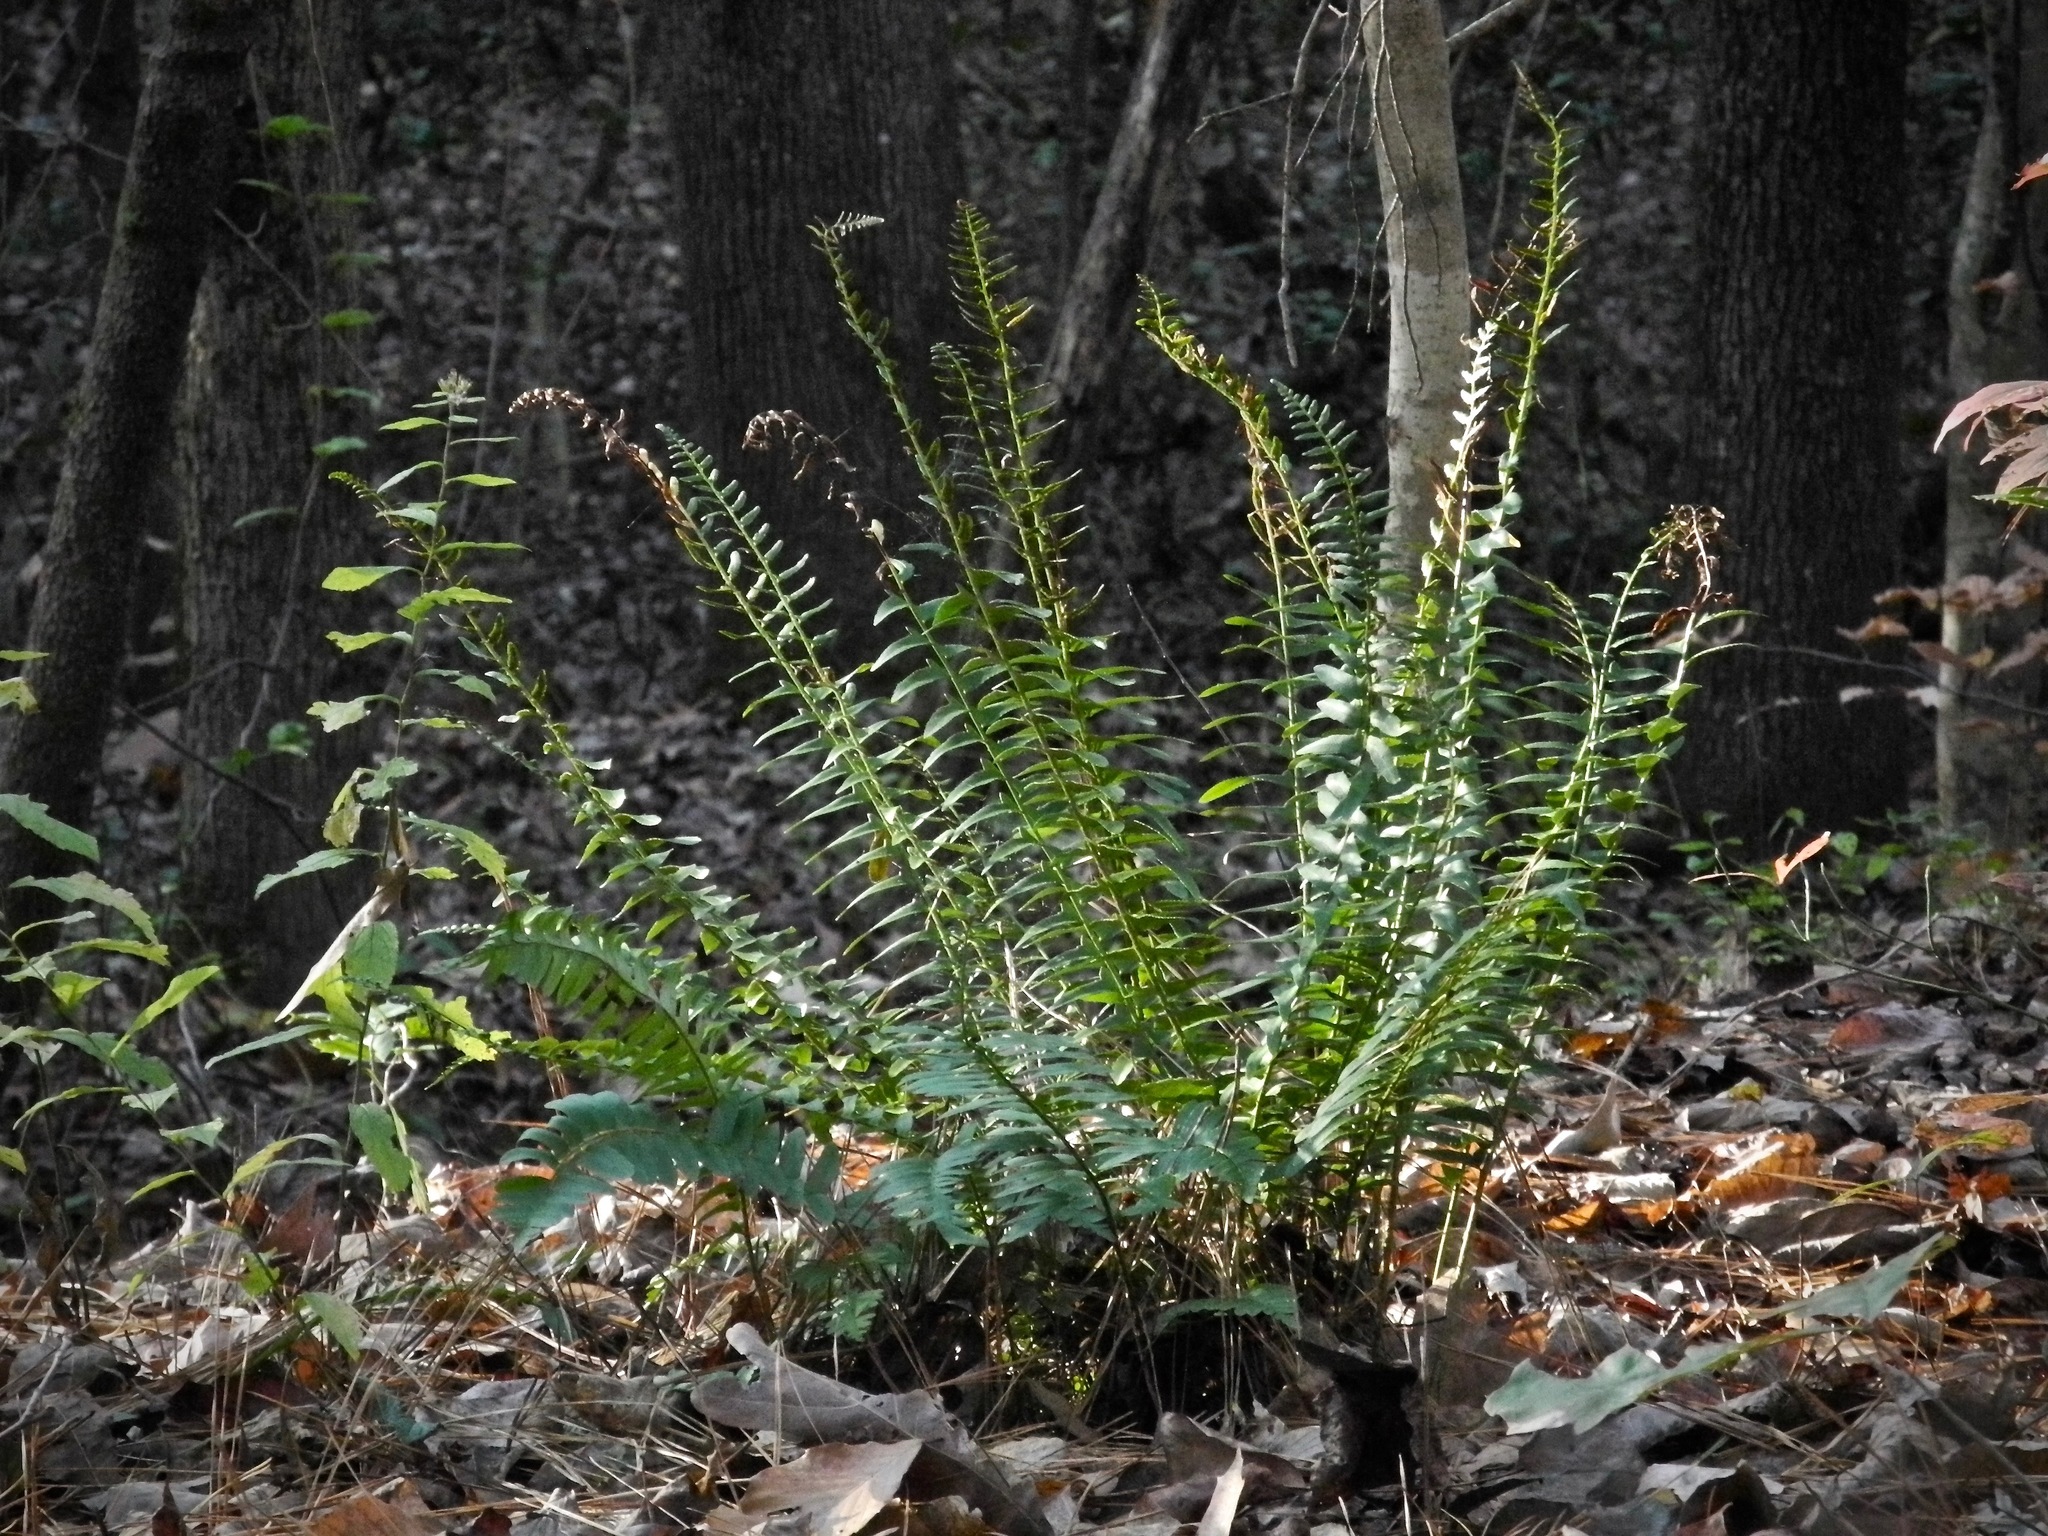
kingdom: Plantae
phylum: Tracheophyta
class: Polypodiopsida
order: Polypodiales
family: Dryopteridaceae
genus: Polystichum
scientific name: Polystichum acrostichoides
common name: Christmas fern
